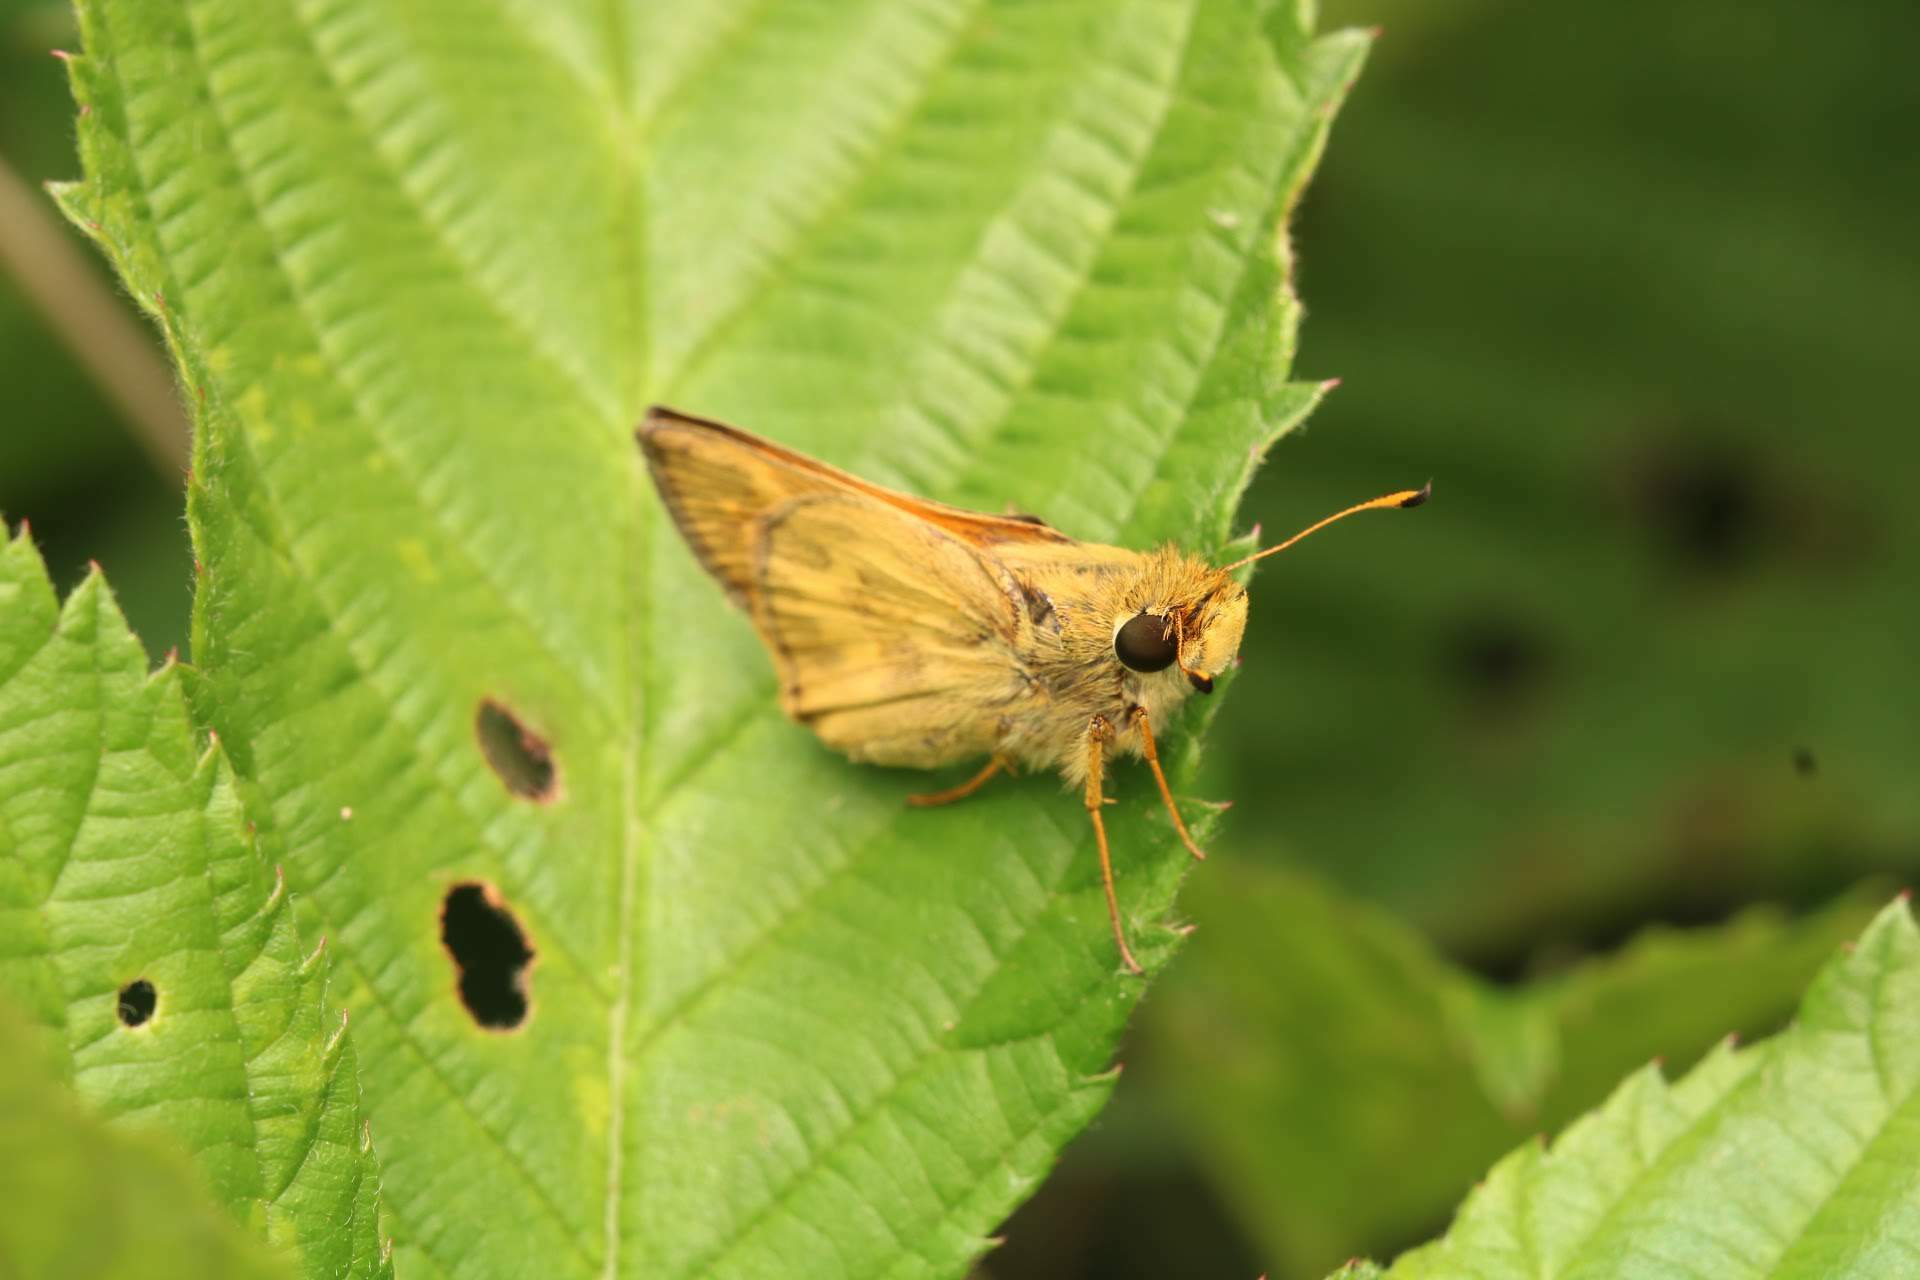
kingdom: Animalia
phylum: Arthropoda
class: Insecta
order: Lepidoptera
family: Hesperiidae
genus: Atalopedes
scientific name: Atalopedes
